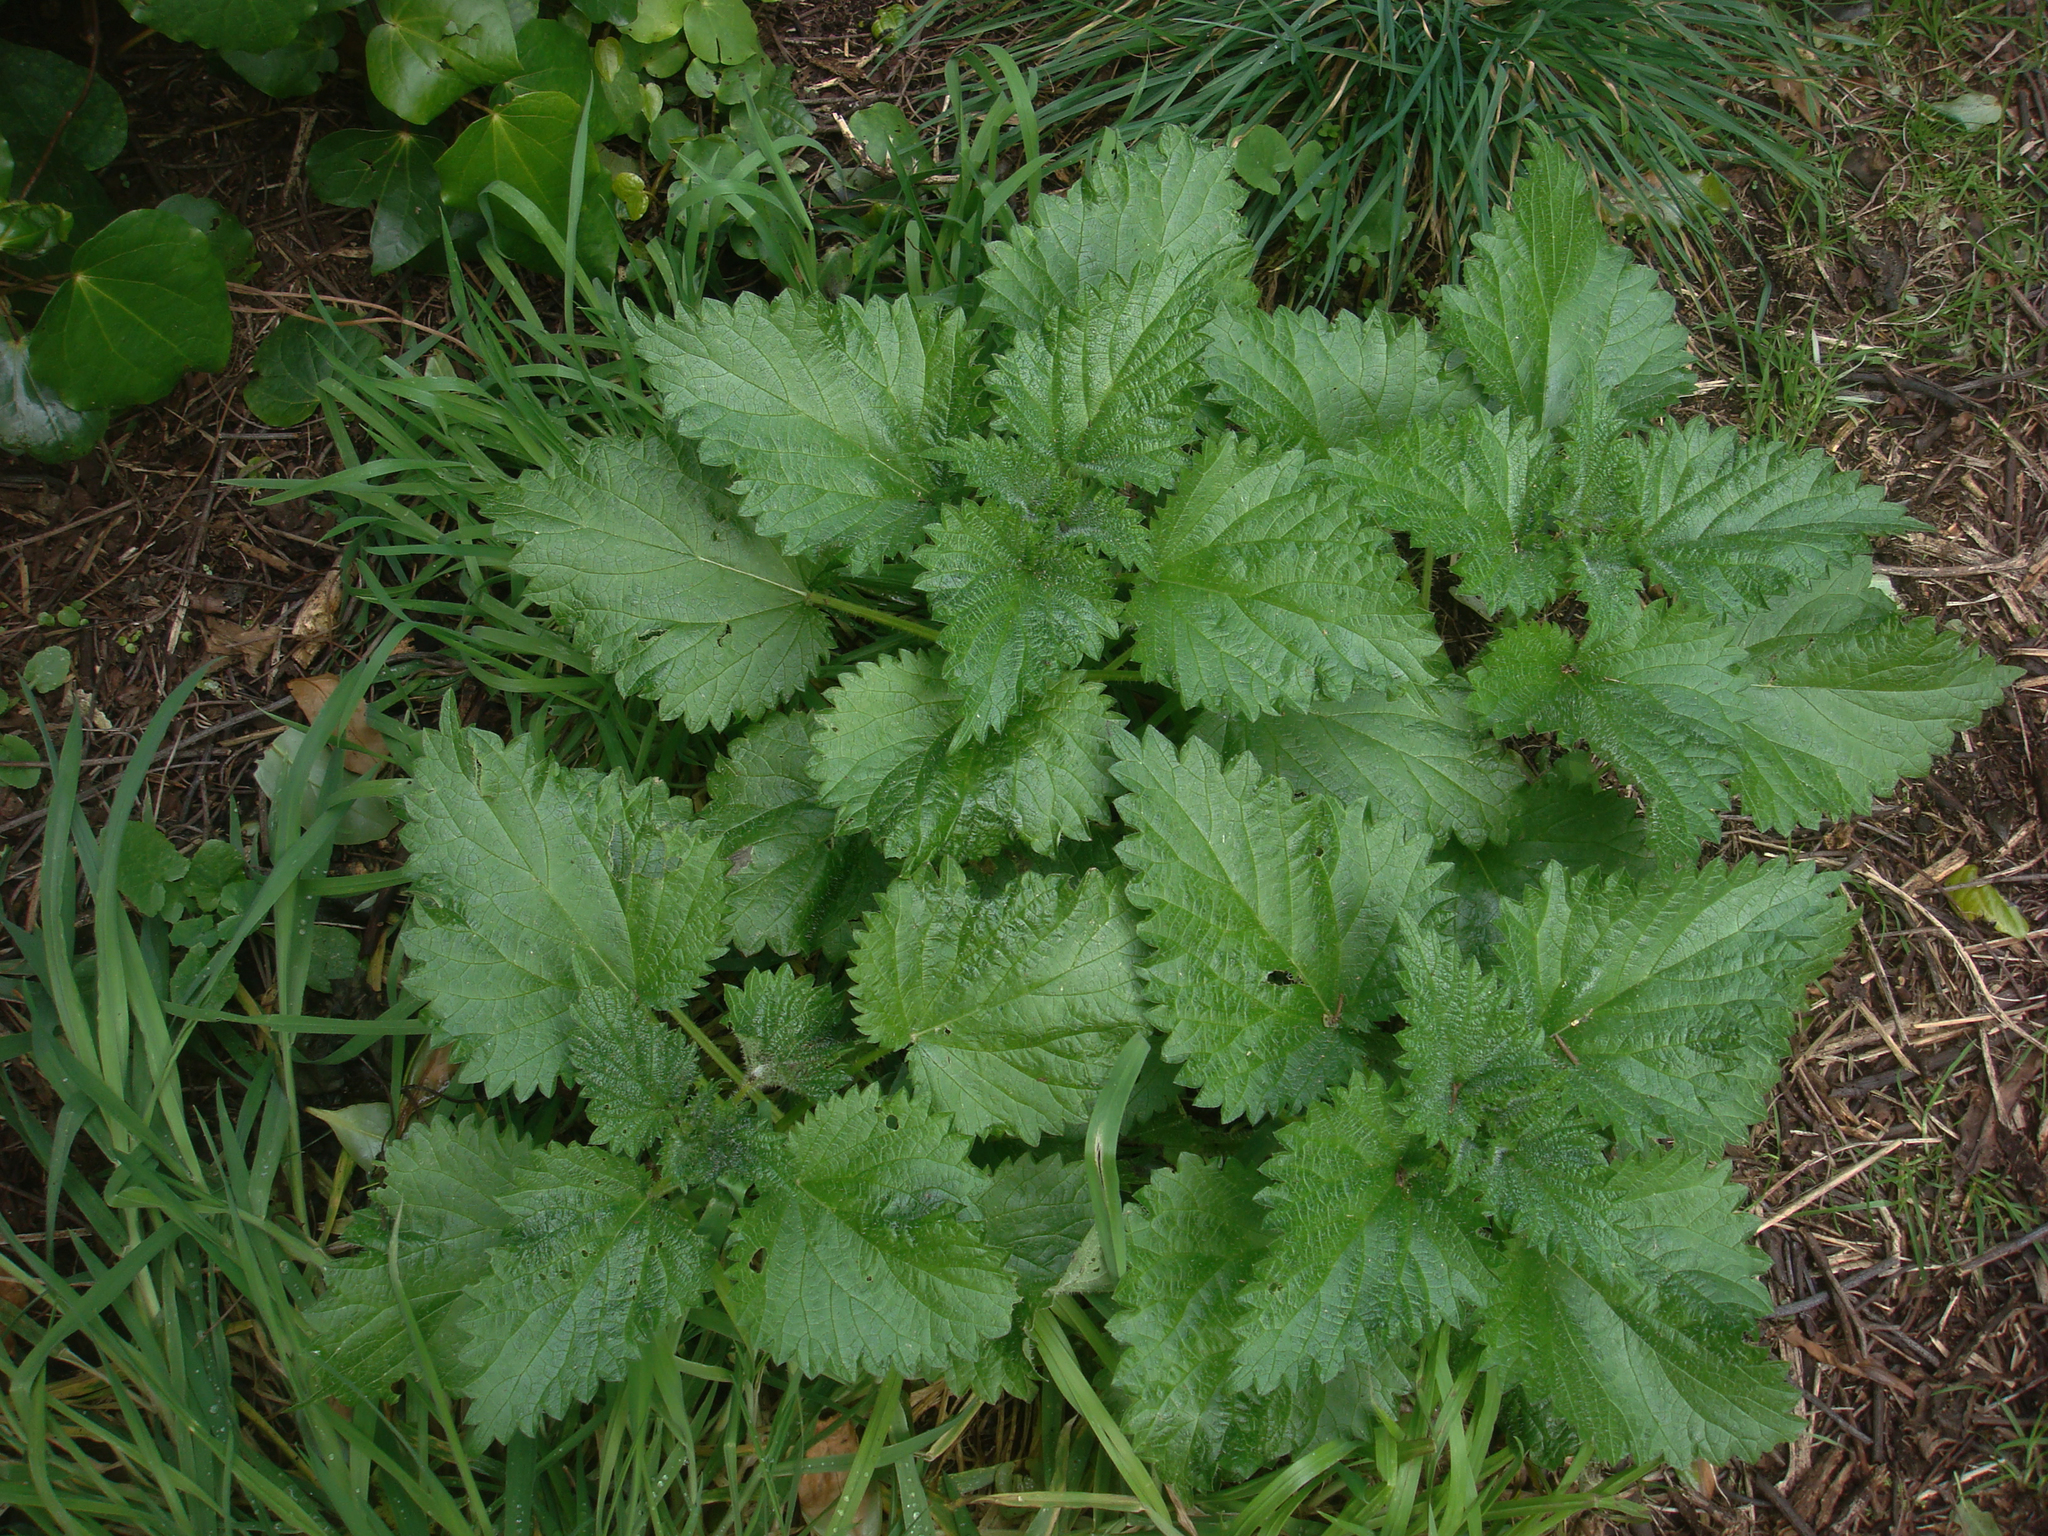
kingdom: Plantae
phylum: Tracheophyta
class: Magnoliopsida
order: Rosales
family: Urticaceae
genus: Urtica
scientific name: Urtica australis
